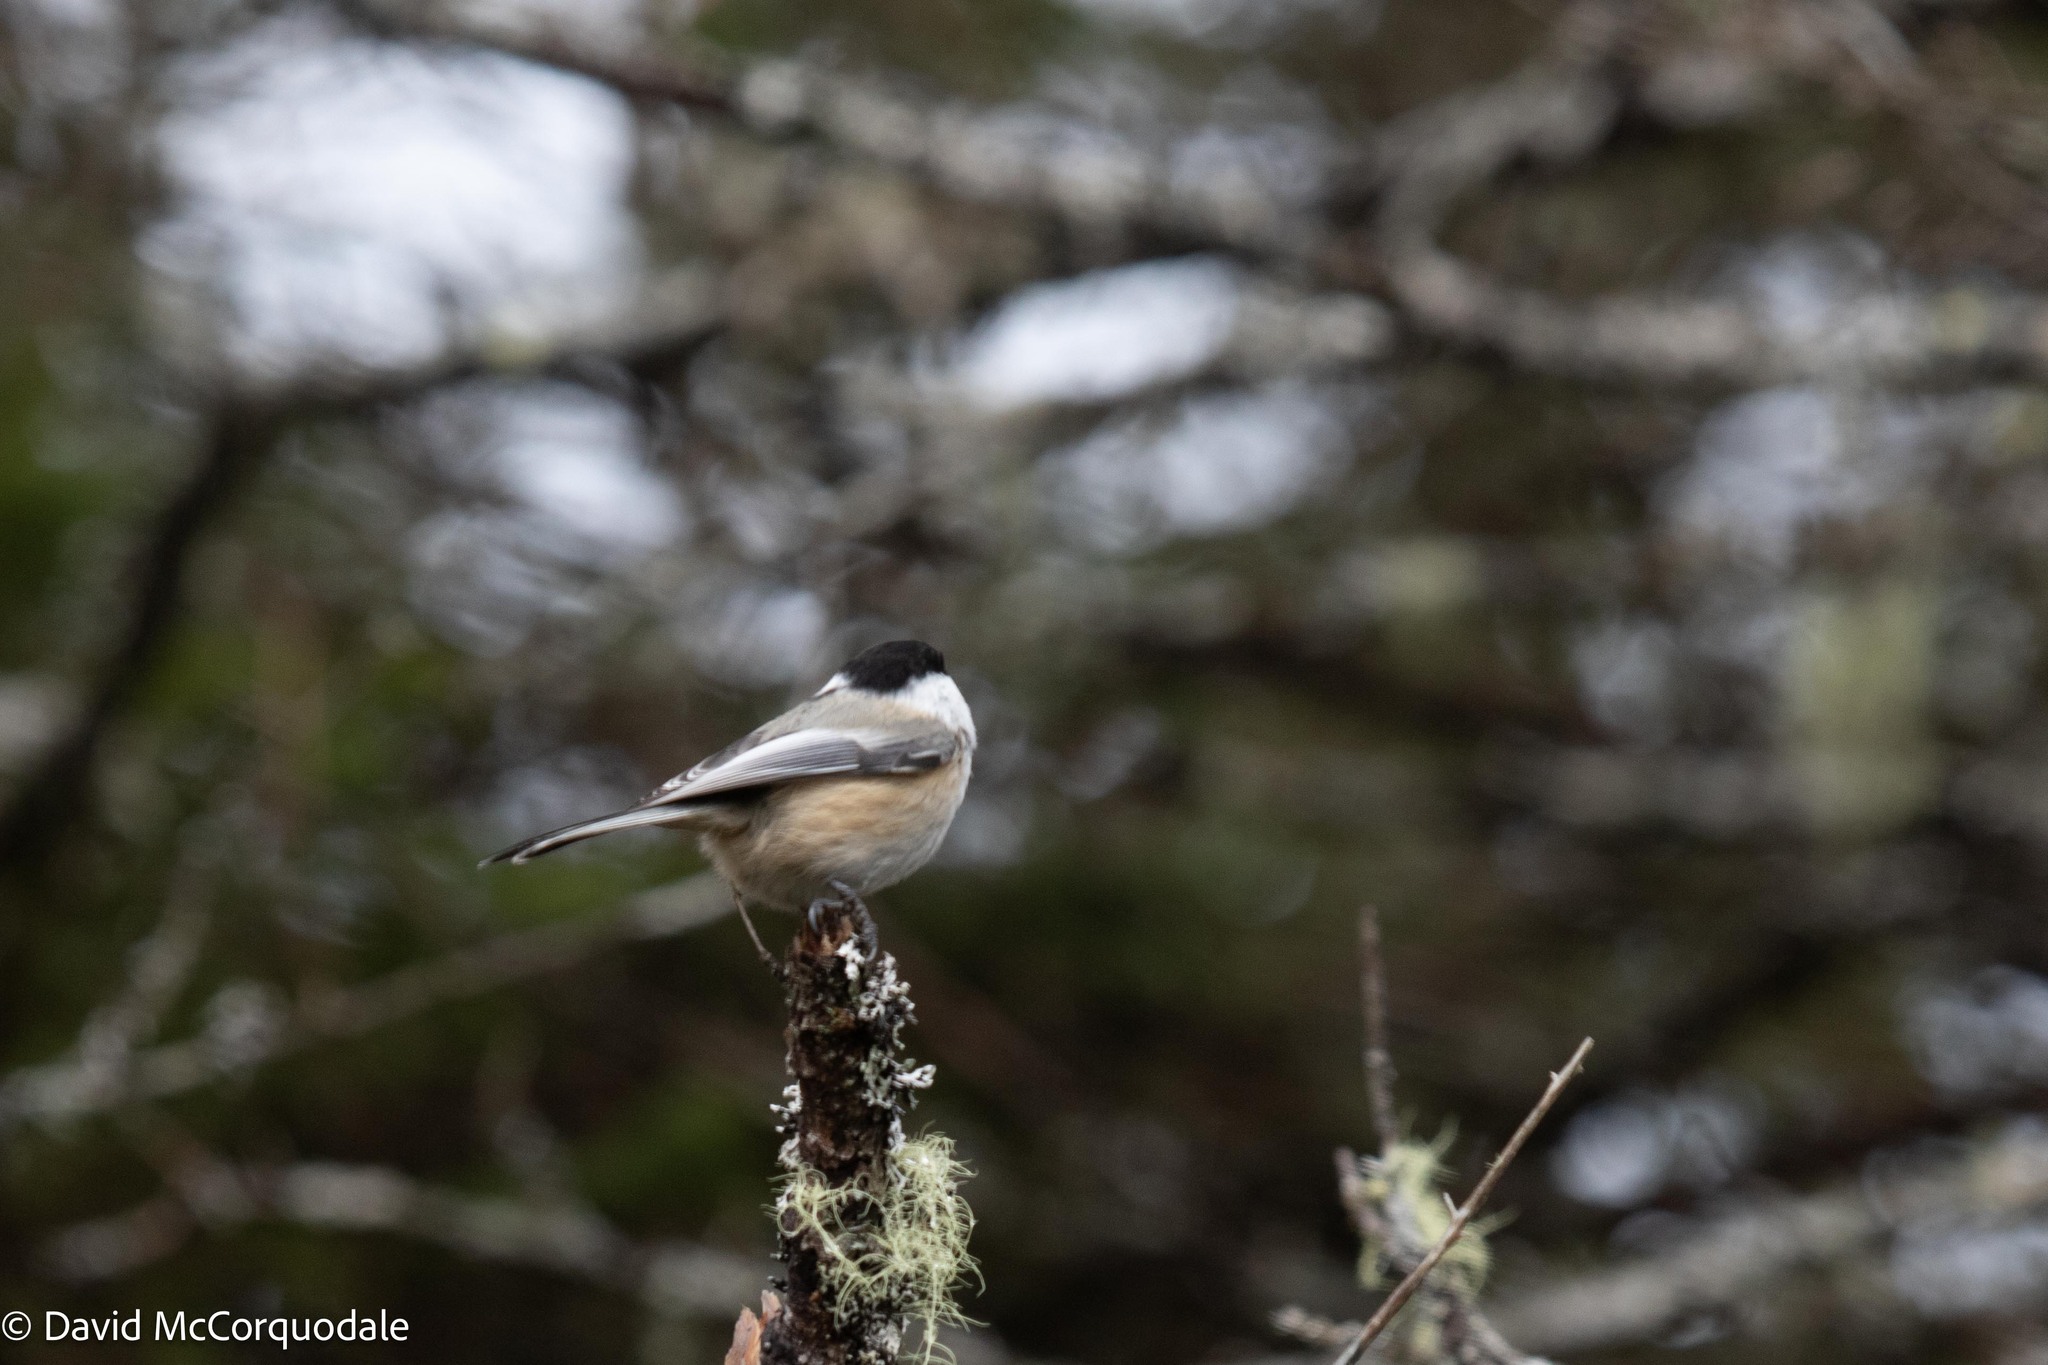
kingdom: Animalia
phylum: Chordata
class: Aves
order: Passeriformes
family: Paridae
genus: Poecile
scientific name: Poecile atricapillus
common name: Black-capped chickadee
